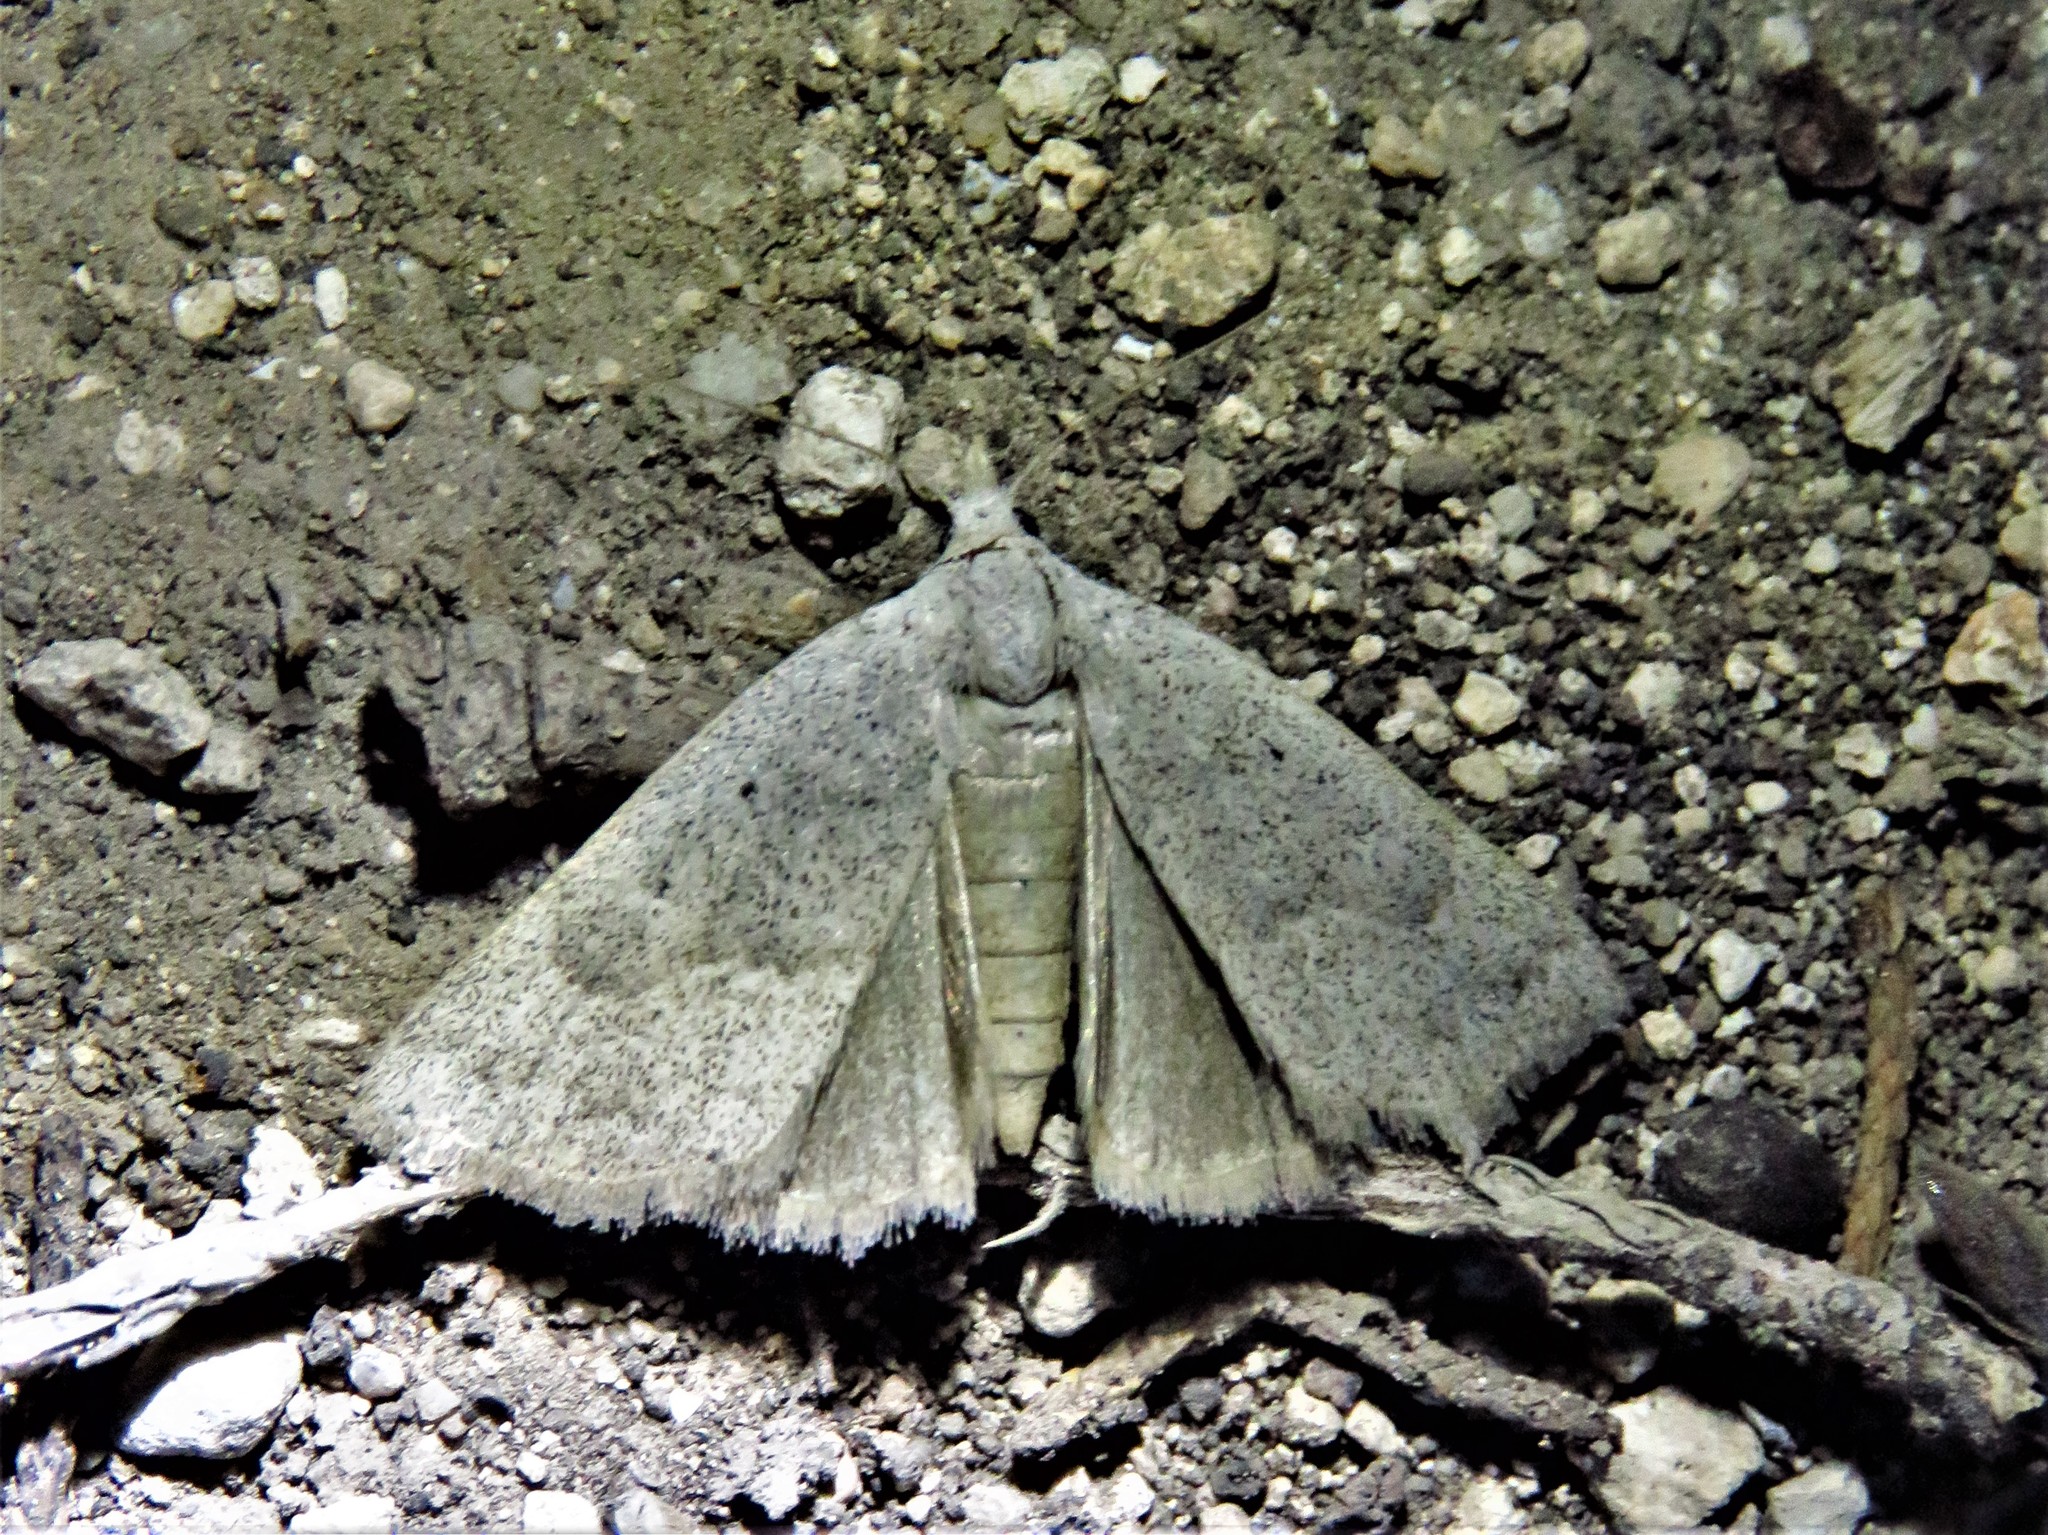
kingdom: Animalia
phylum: Arthropoda
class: Insecta
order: Lepidoptera
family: Erebidae
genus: Pseudorgyia
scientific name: Pseudorgyia versuta
